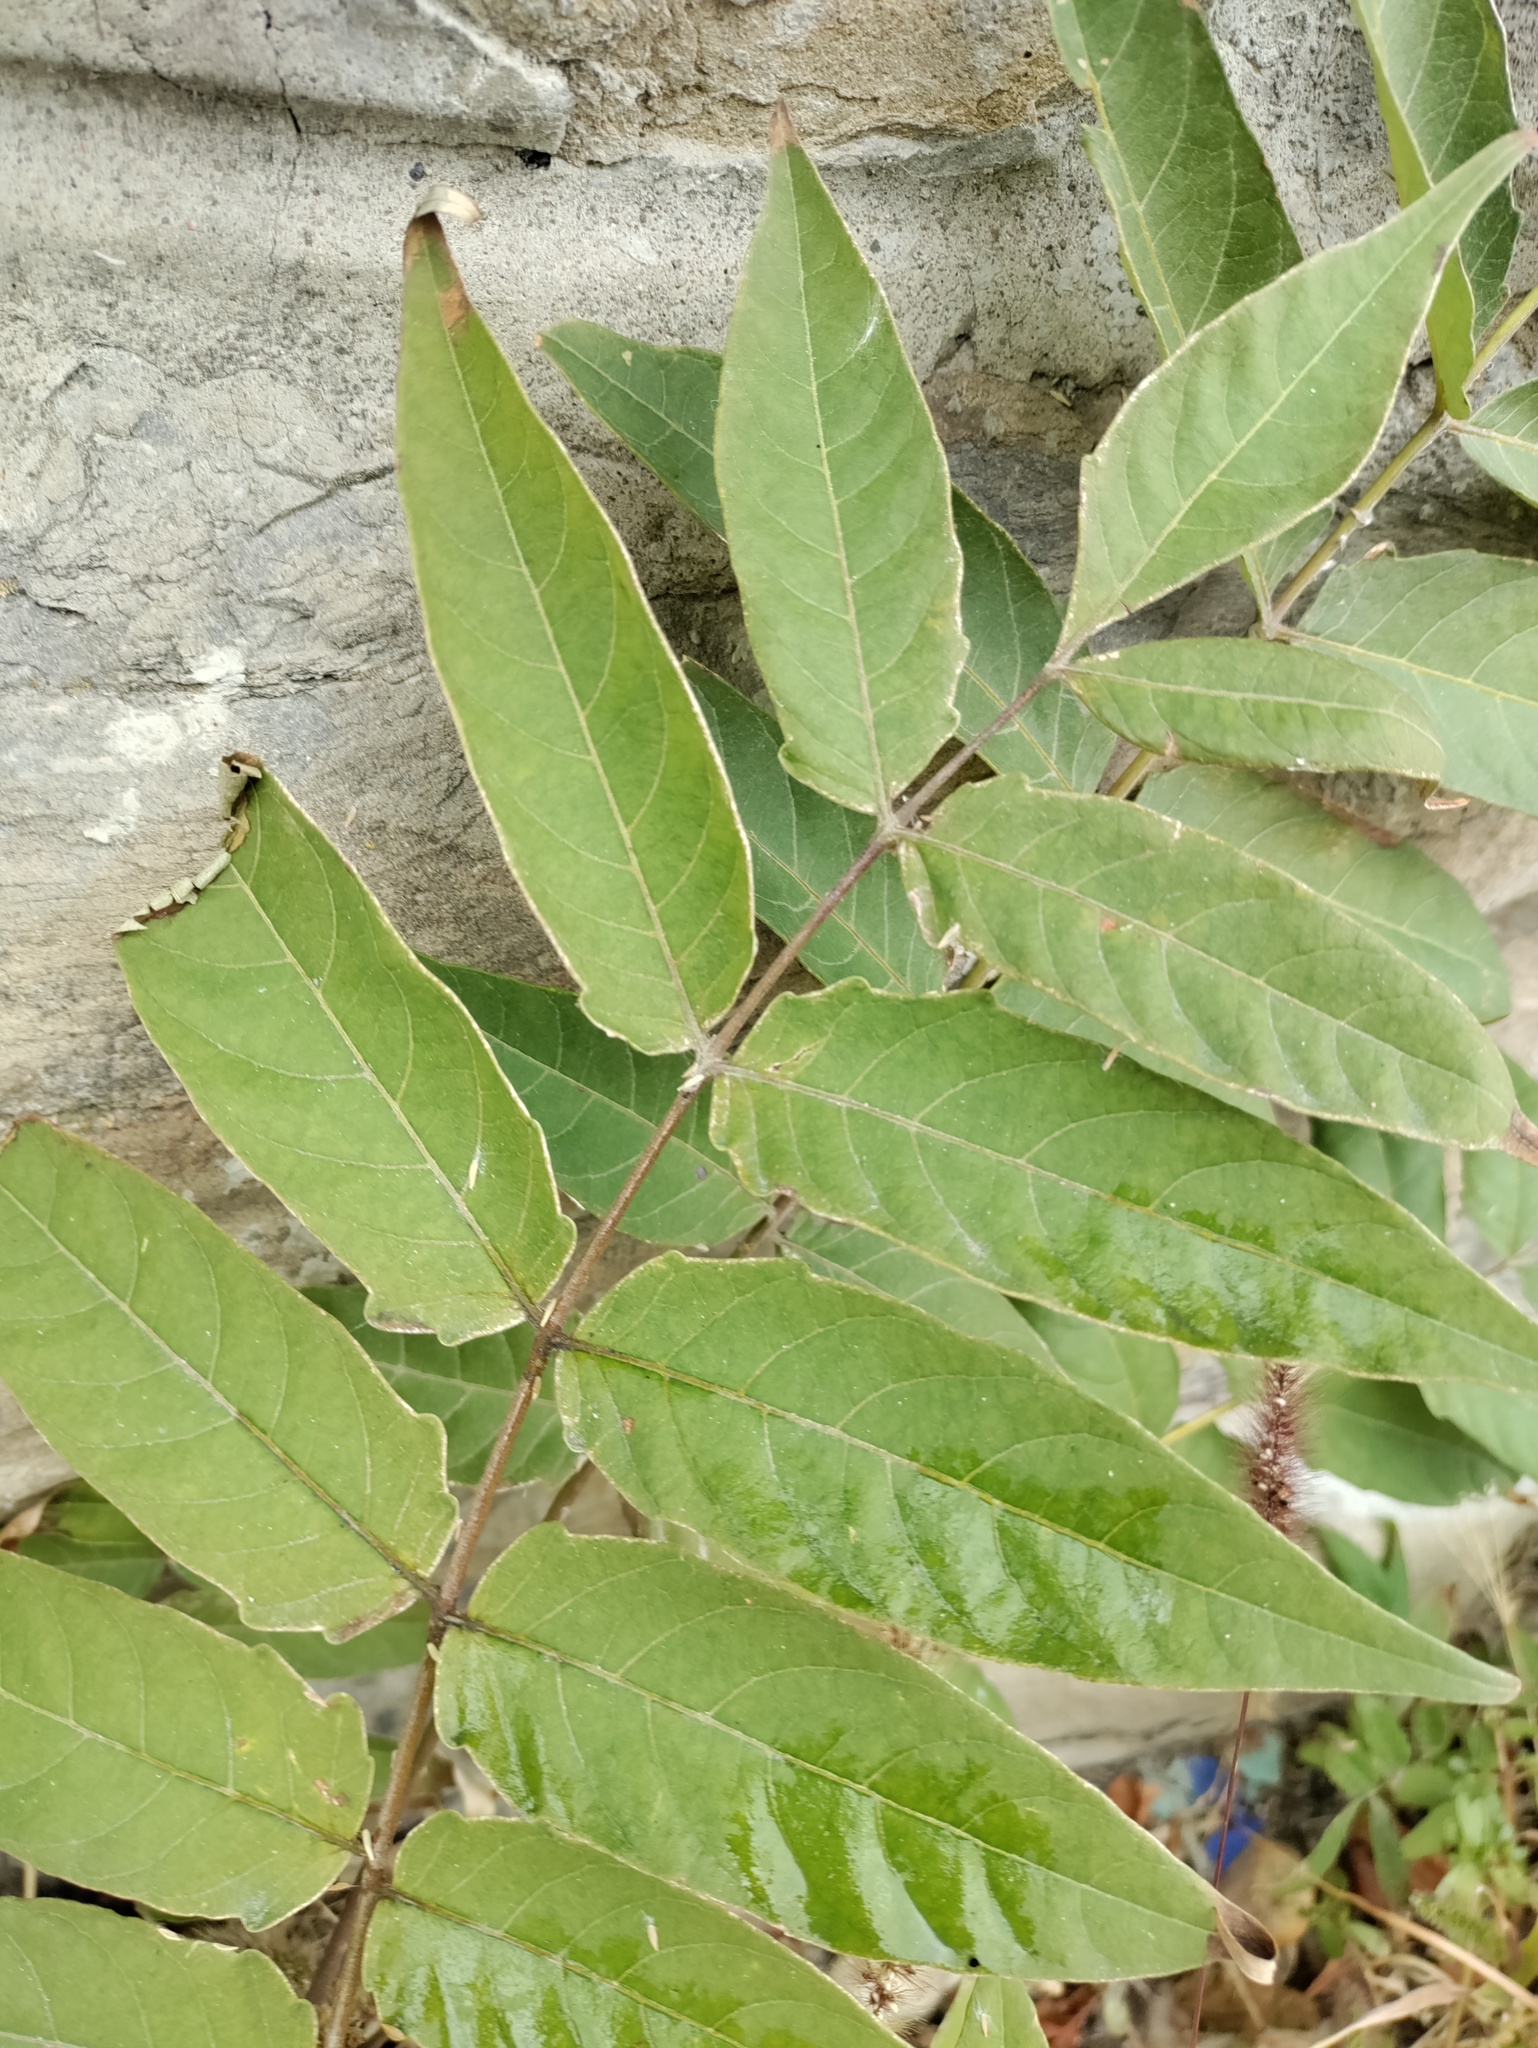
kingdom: Plantae
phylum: Tracheophyta
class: Magnoliopsida
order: Sapindales
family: Simaroubaceae
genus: Ailanthus
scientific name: Ailanthus altissima
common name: Tree-of-heaven
